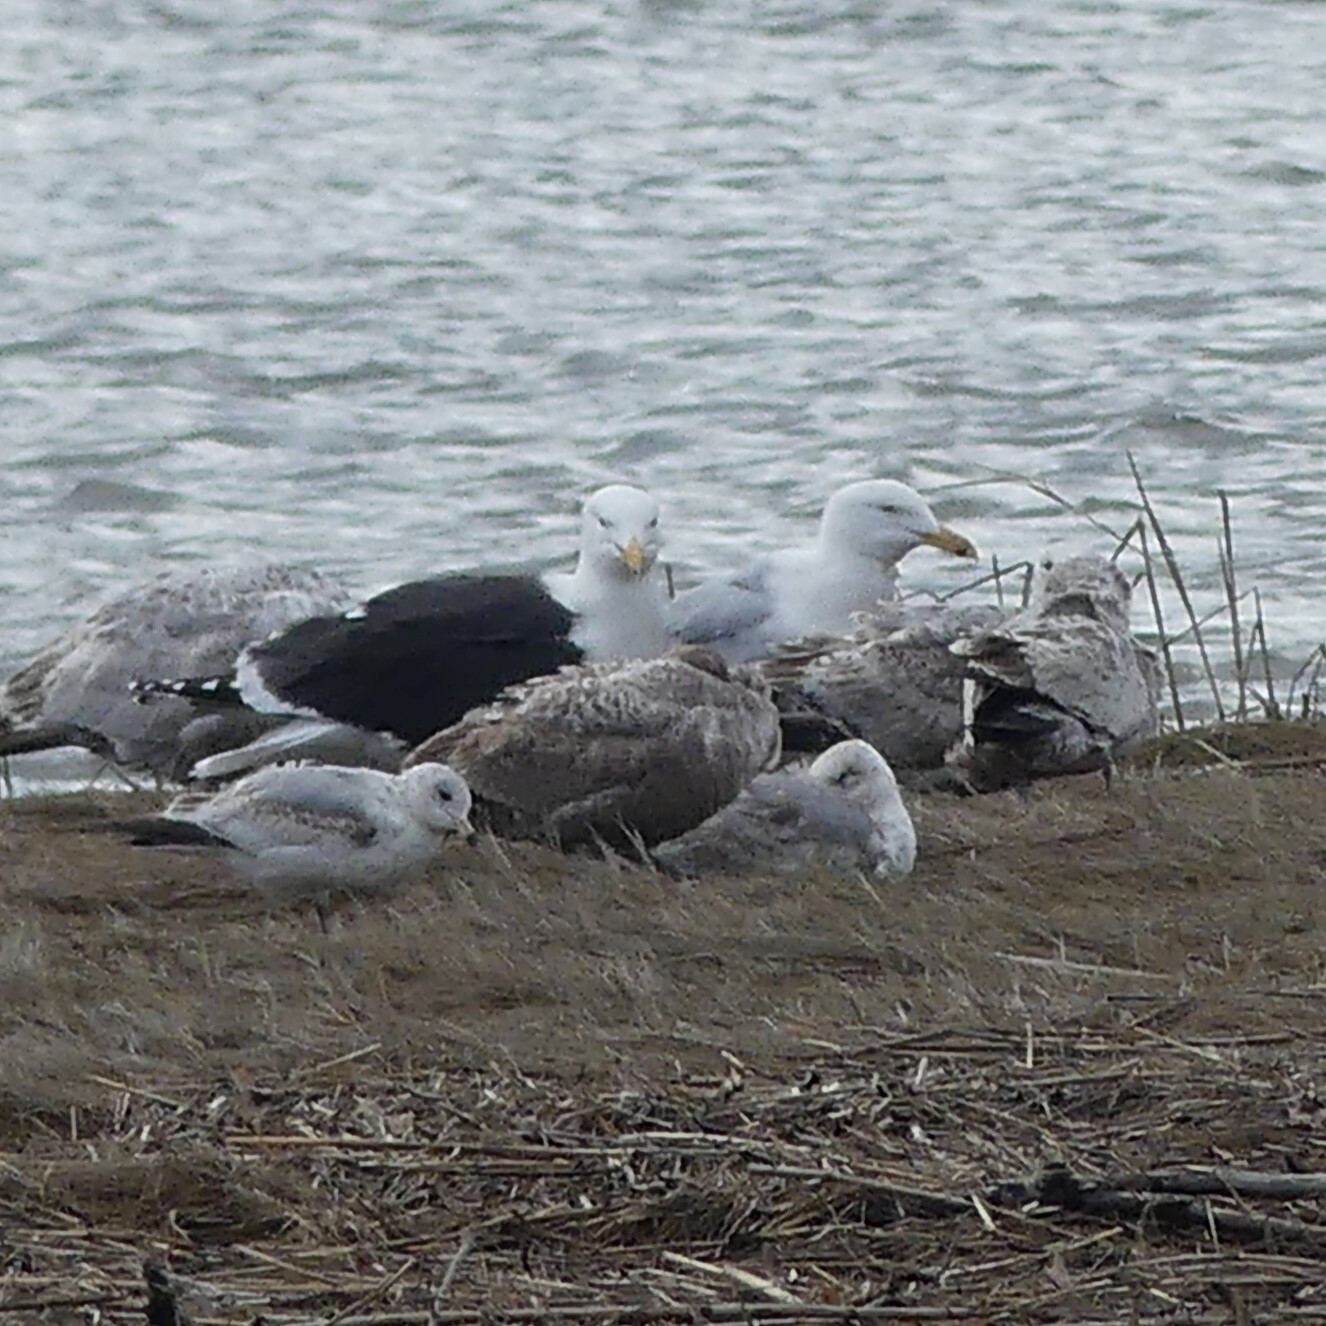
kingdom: Animalia
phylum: Chordata
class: Aves
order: Charadriiformes
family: Laridae
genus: Larus
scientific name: Larus marinus
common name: Great black-backed gull
